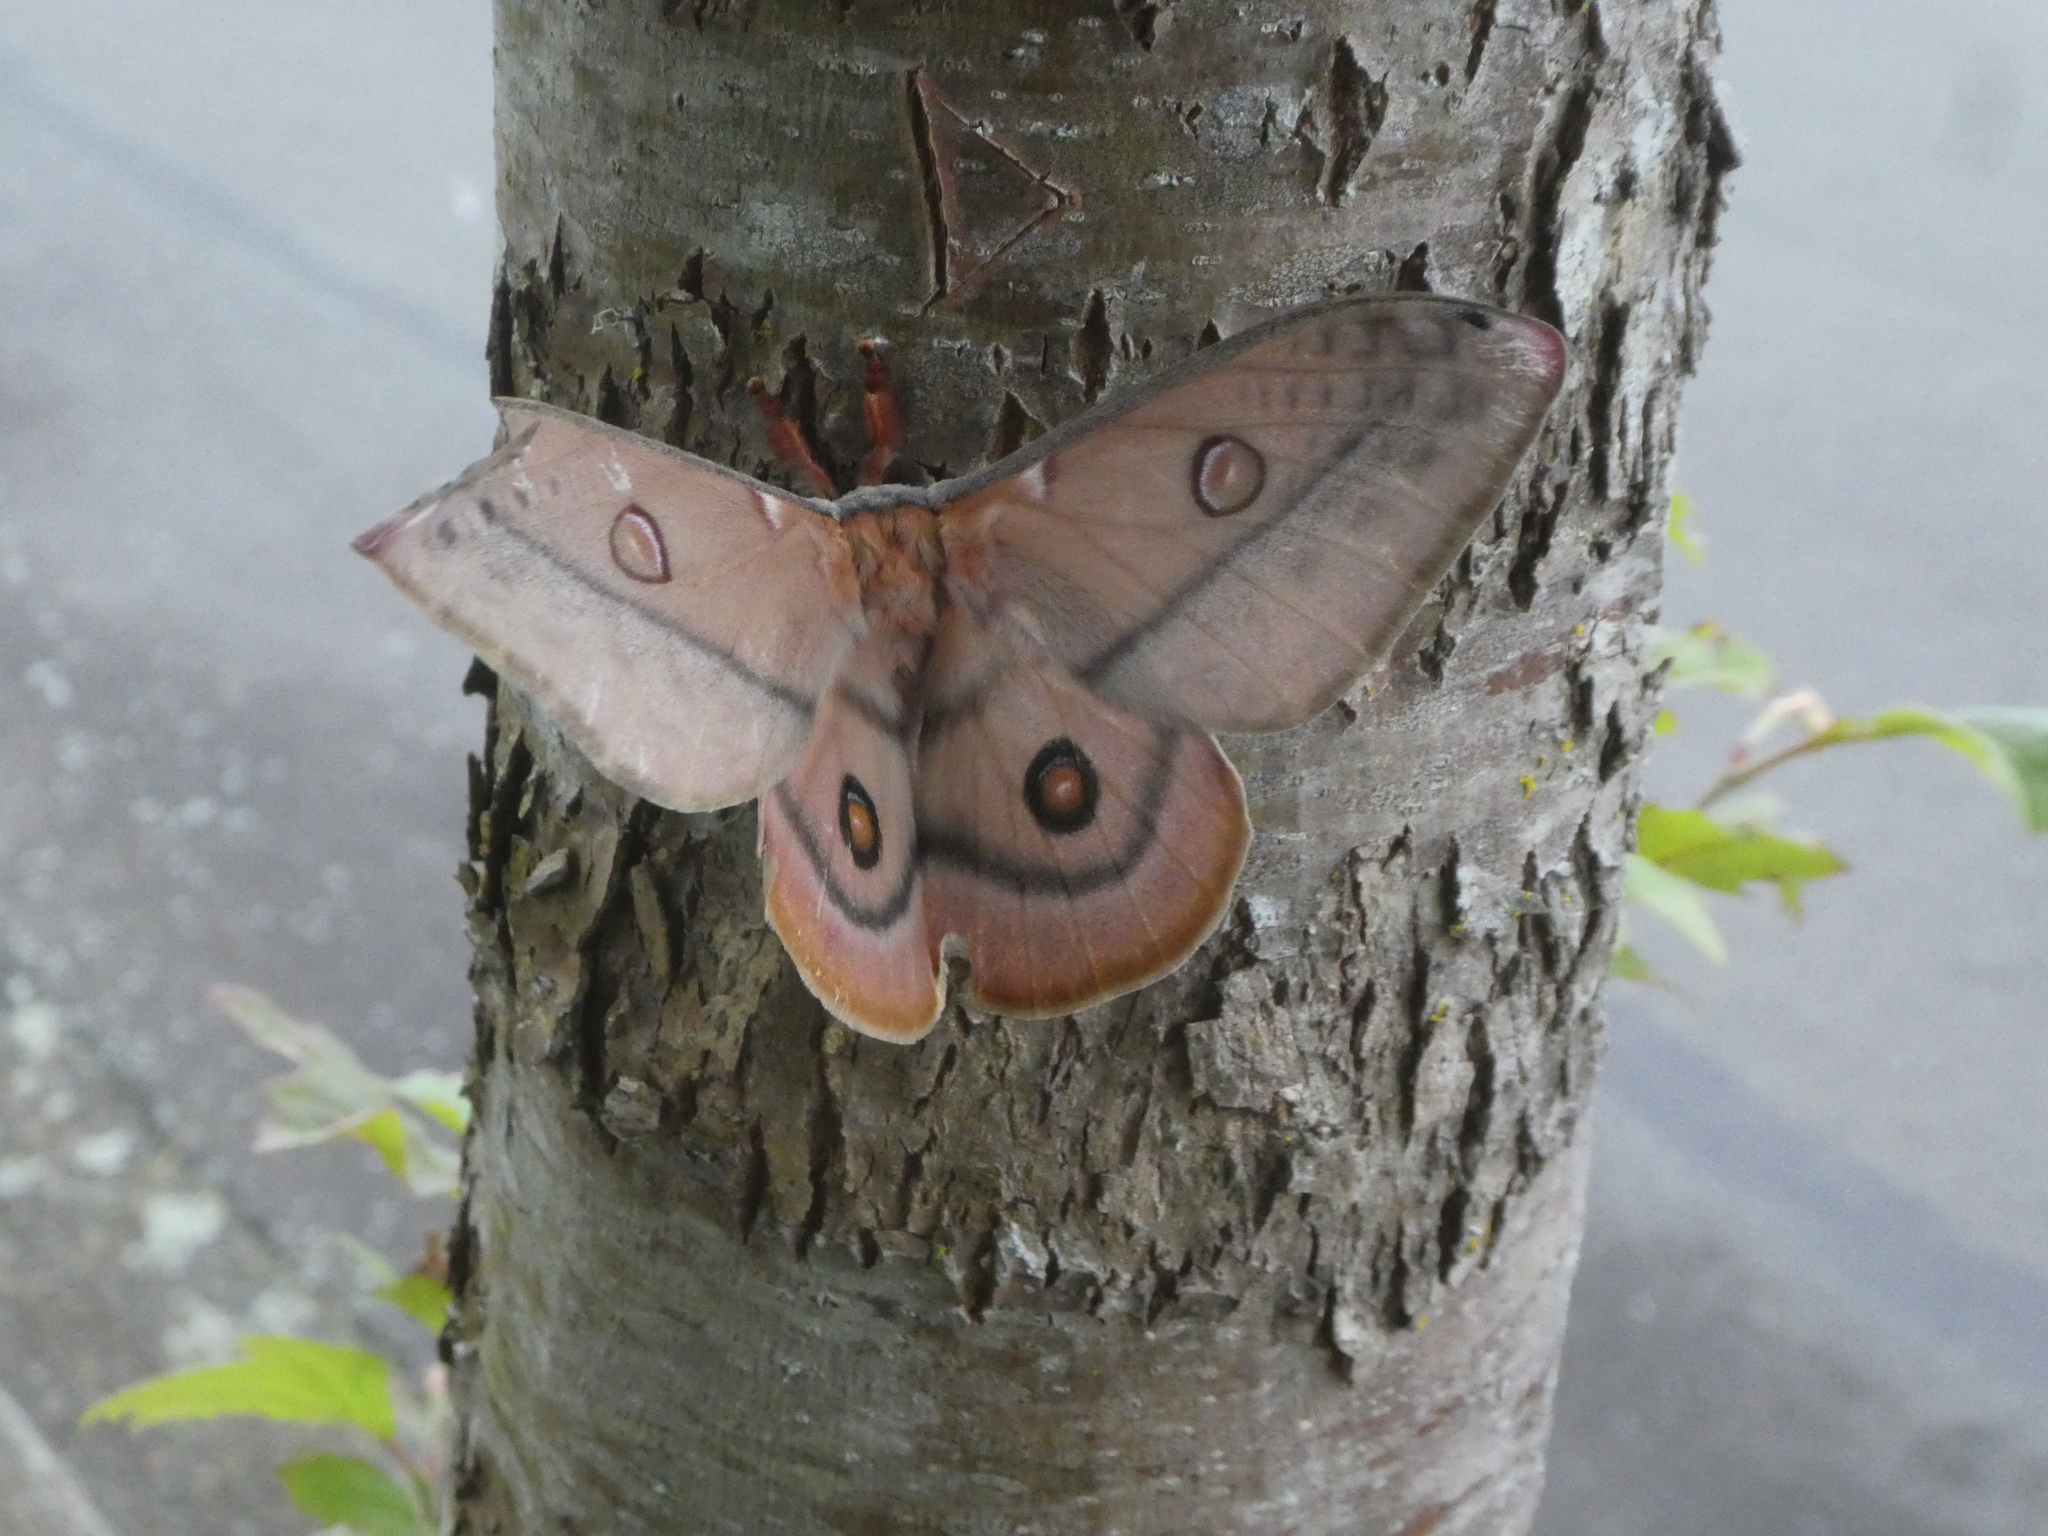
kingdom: Animalia
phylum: Arthropoda
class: Insecta
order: Lepidoptera
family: Saturniidae
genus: Opodiphthera
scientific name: Opodiphthera
